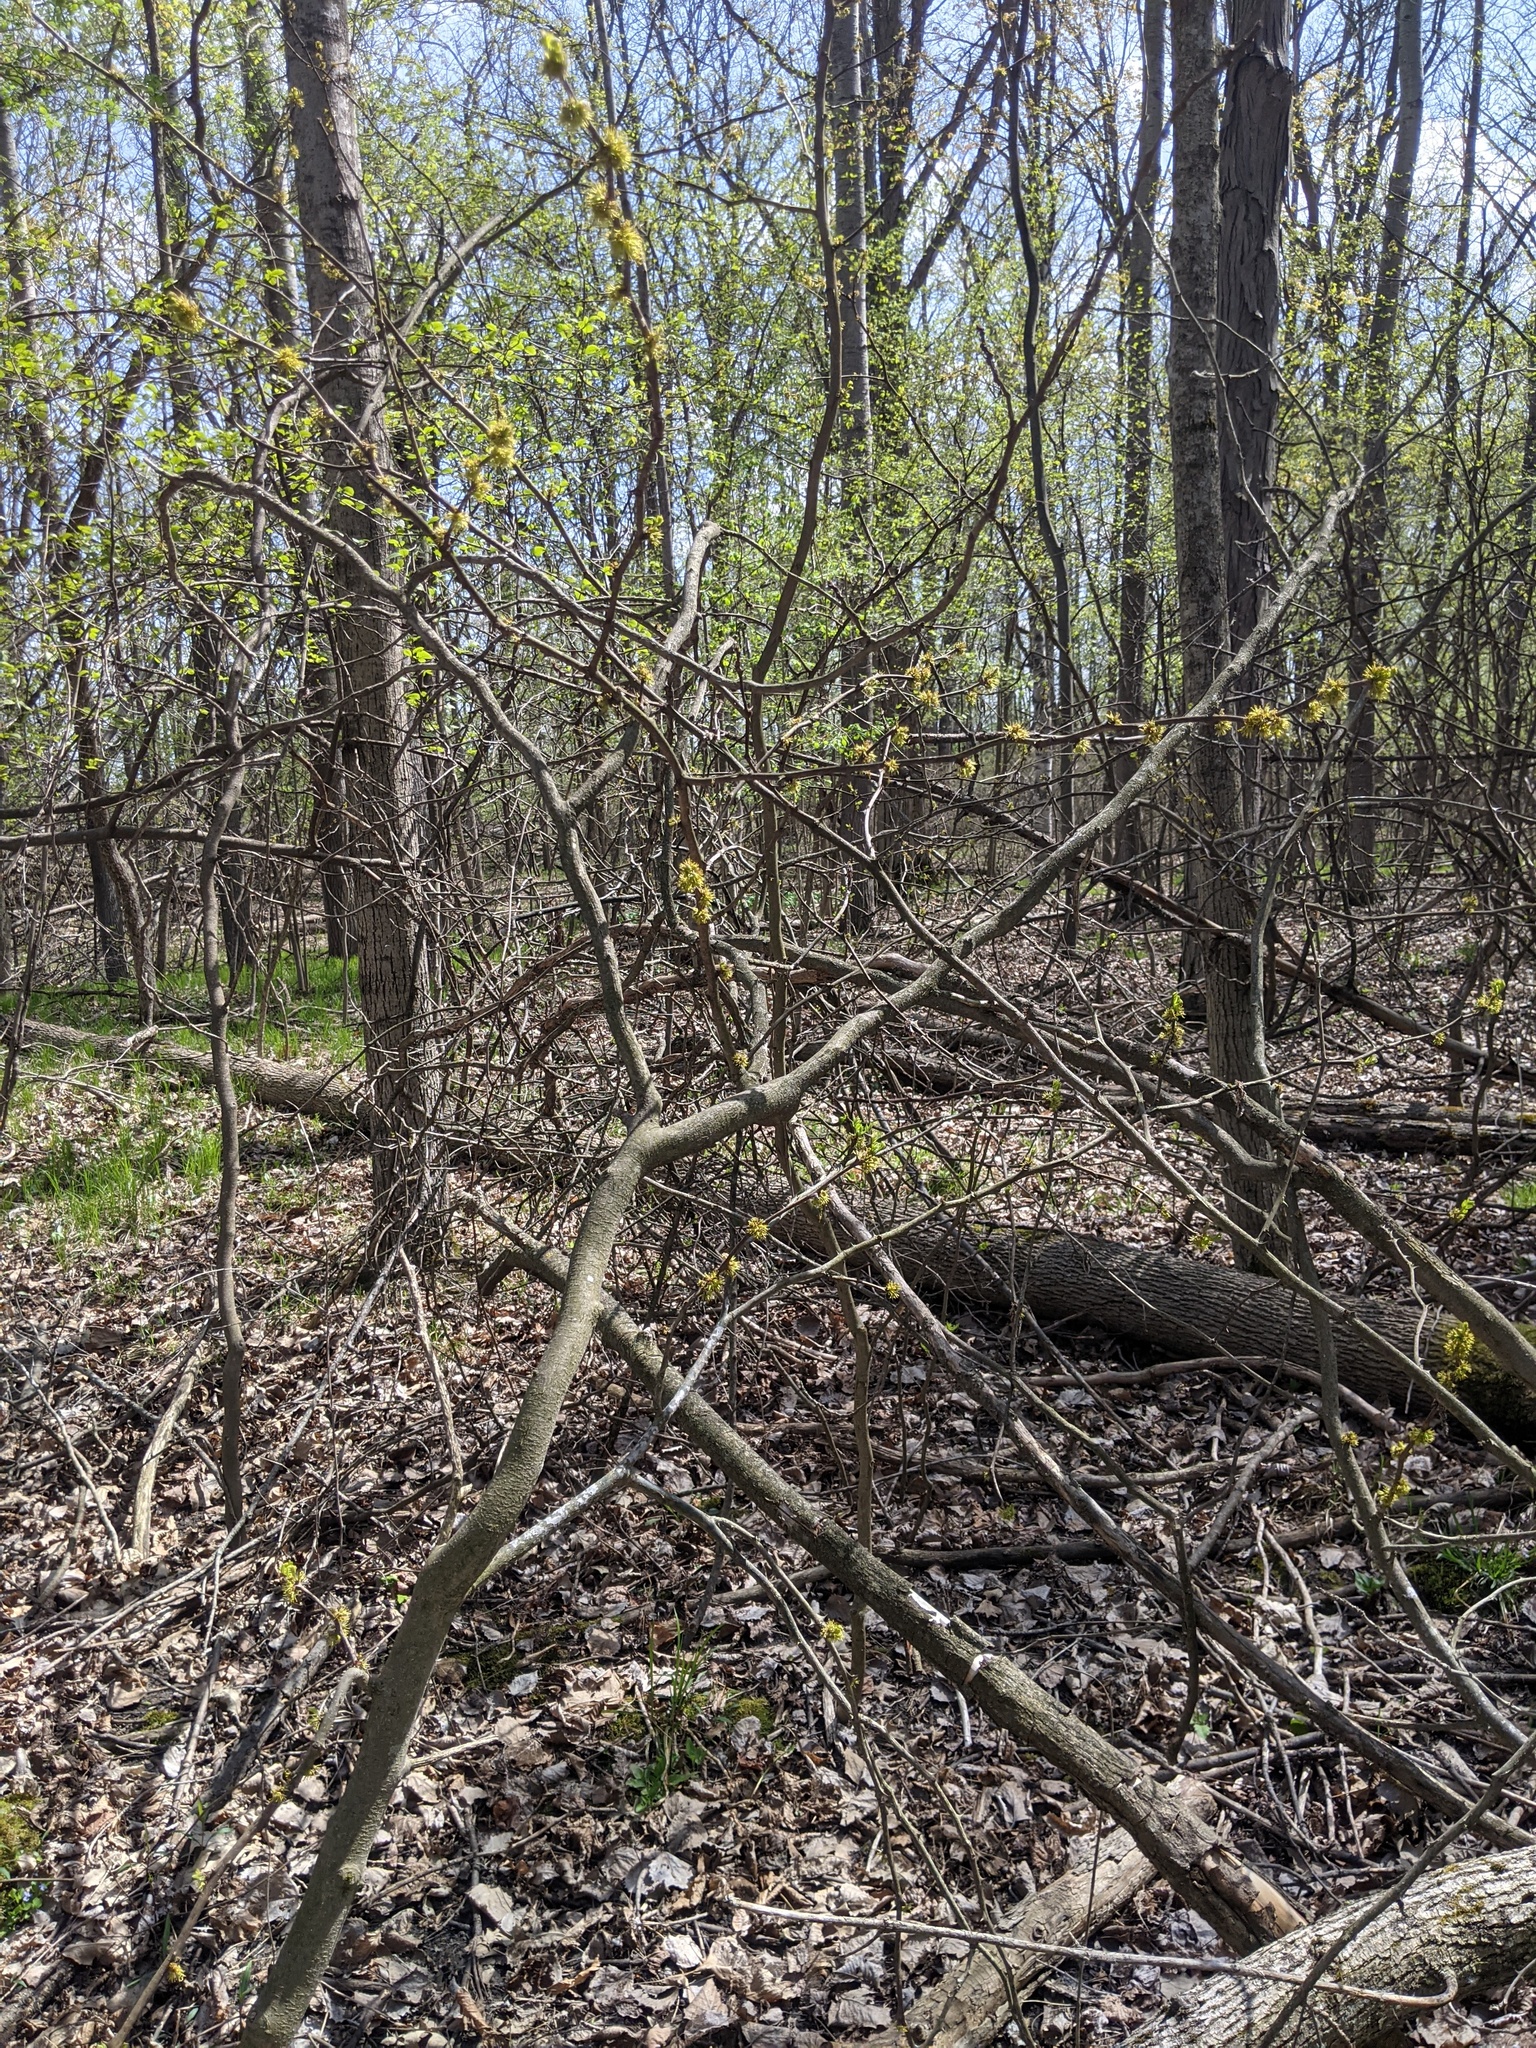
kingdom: Plantae
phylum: Tracheophyta
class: Magnoliopsida
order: Sapindales
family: Rutaceae
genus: Zanthoxylum
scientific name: Zanthoxylum americanum
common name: Northern prickly-ash
